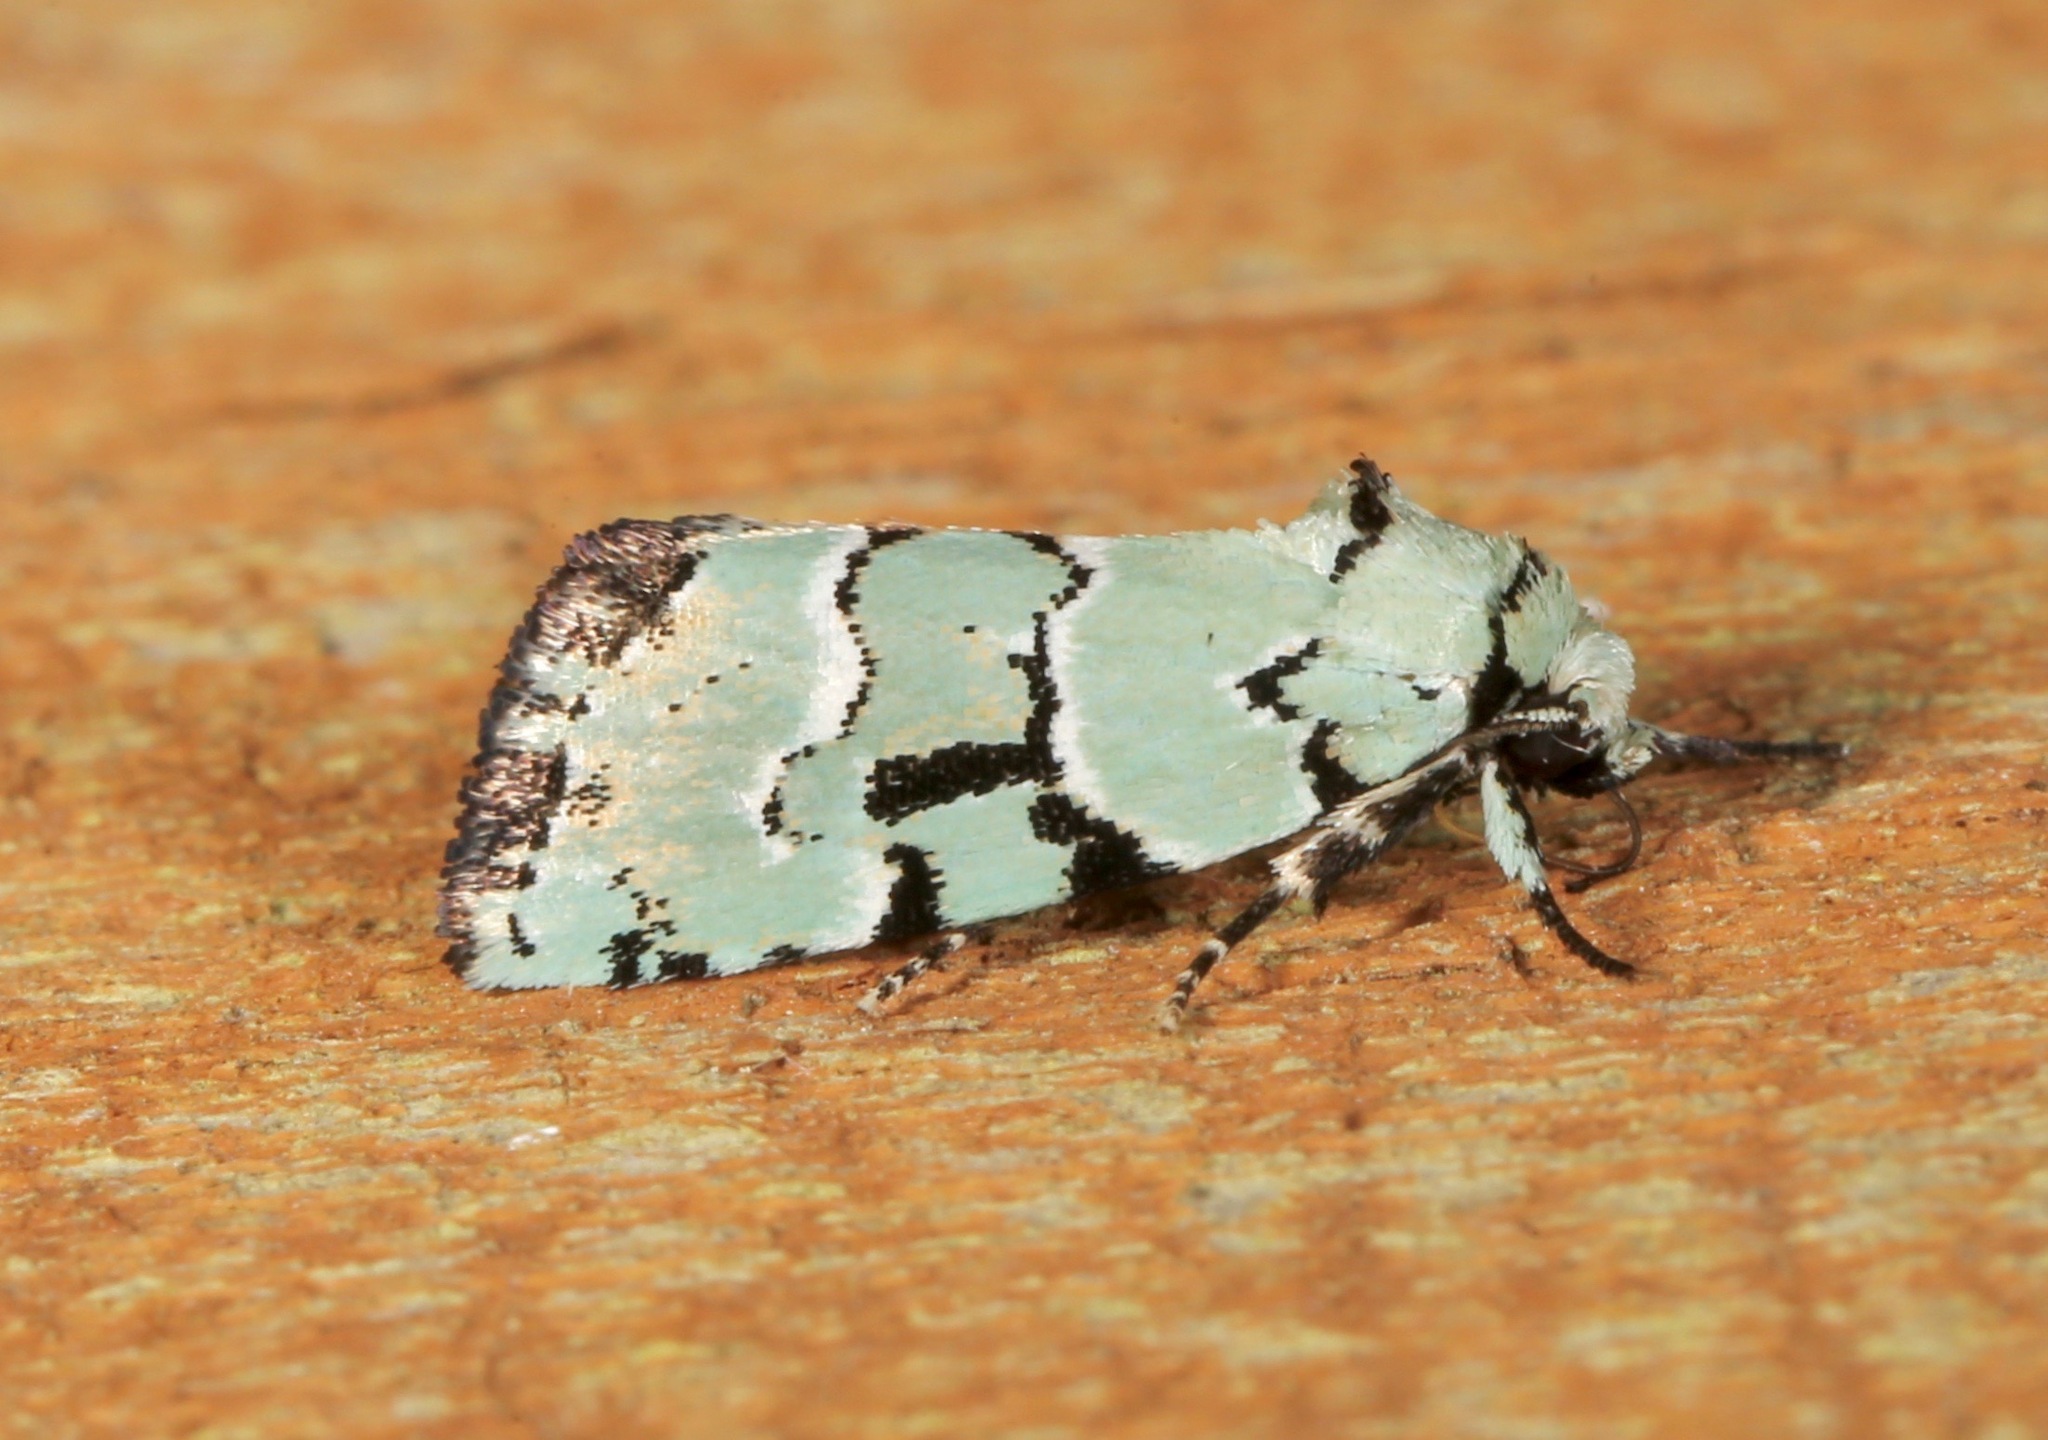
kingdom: Animalia
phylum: Arthropoda
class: Insecta
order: Lepidoptera
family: Noctuidae
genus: Elaphria
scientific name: Elaphria cyanympha
